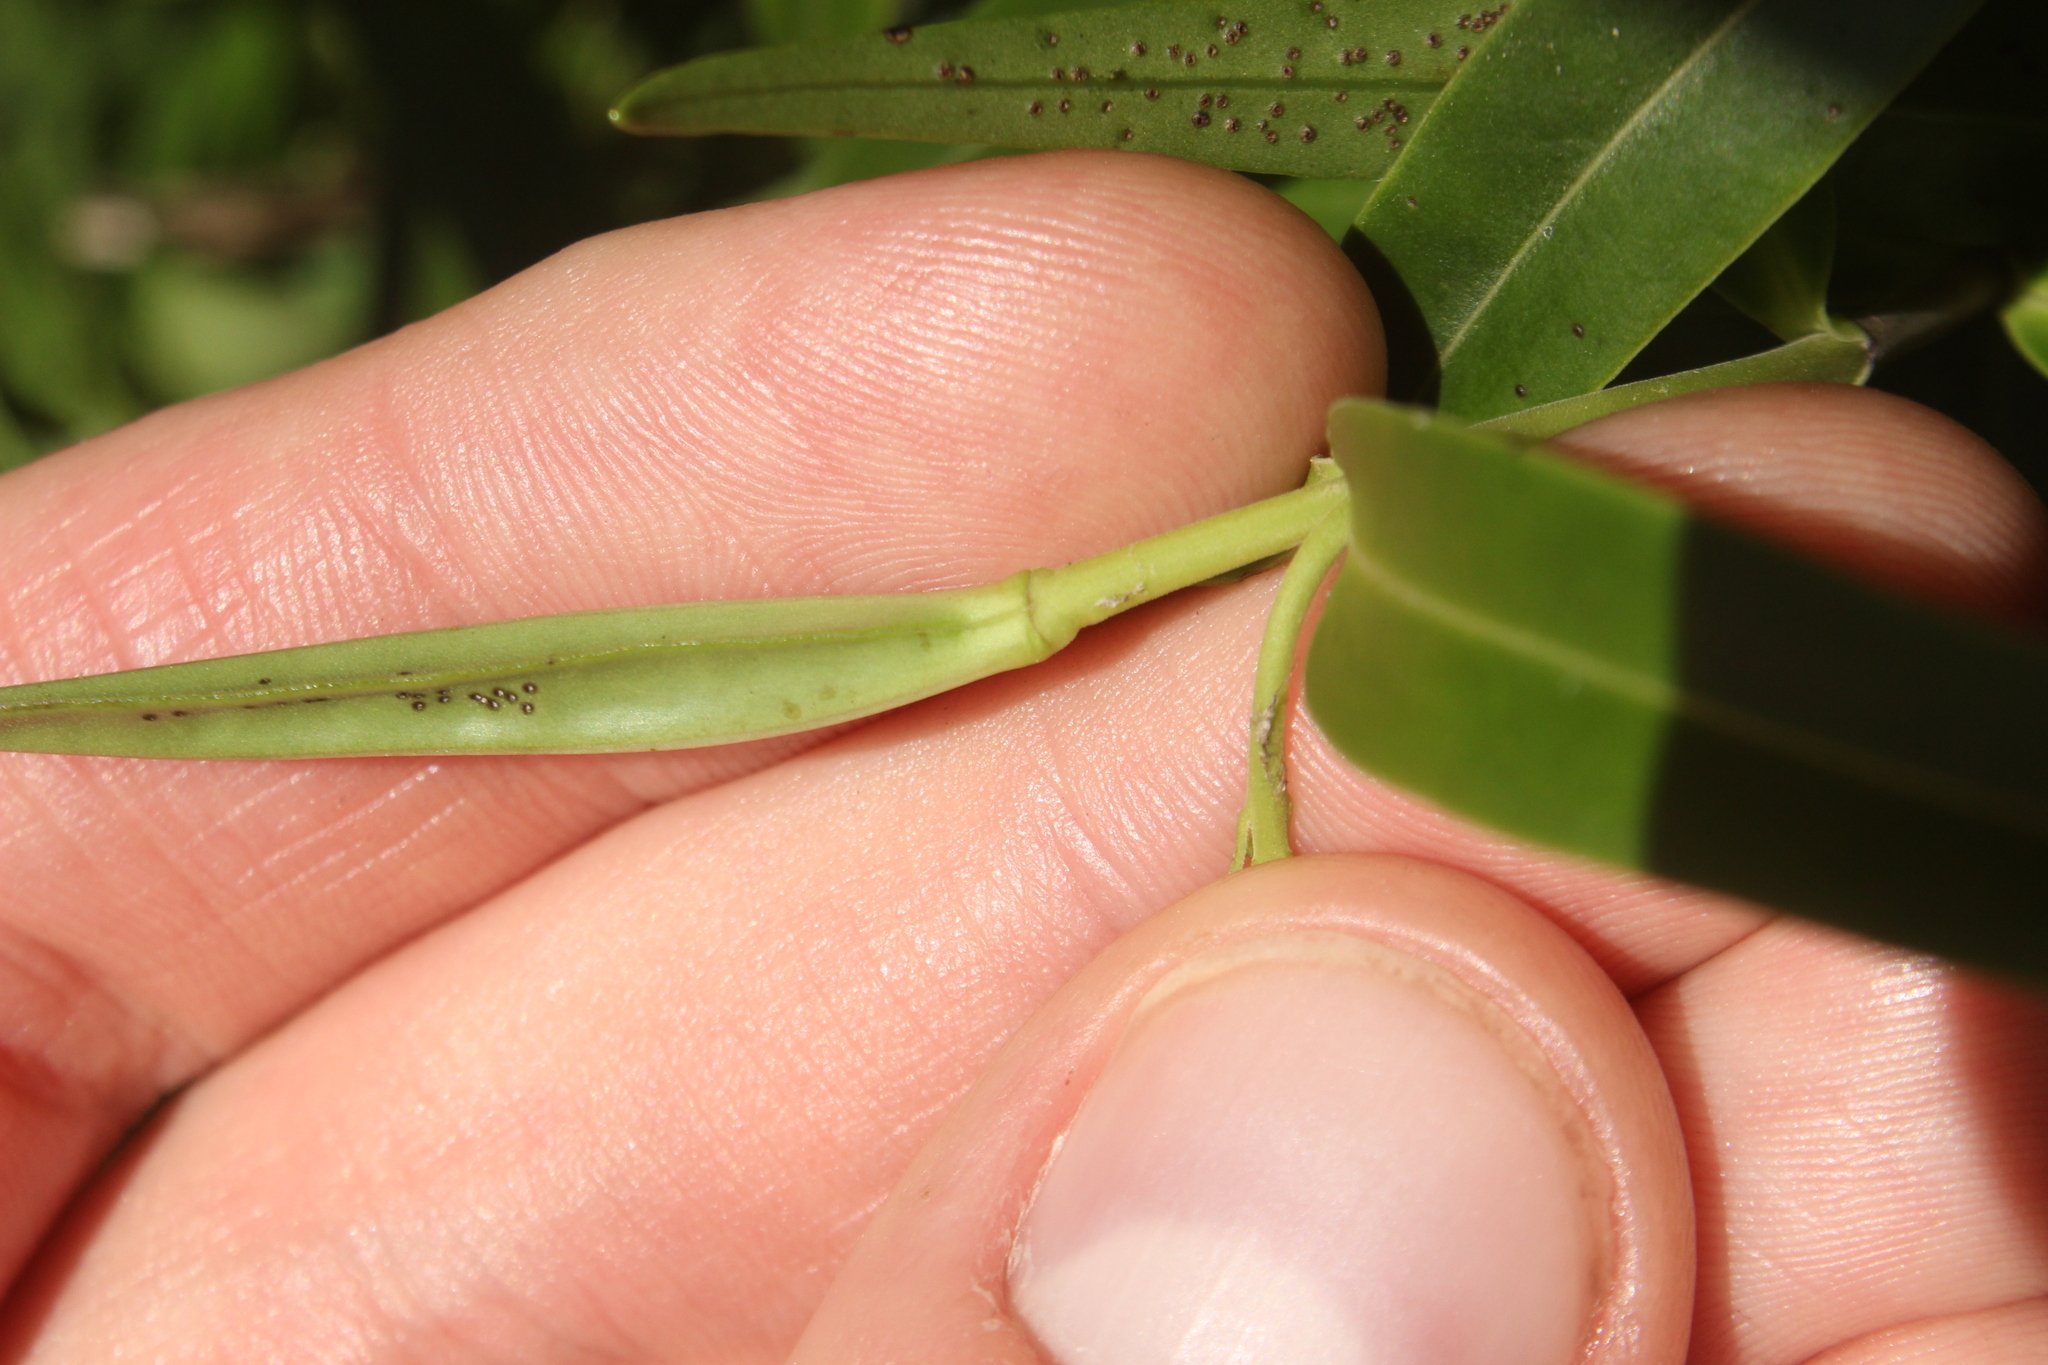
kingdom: Plantae
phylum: Tracheophyta
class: Magnoliopsida
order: Lamiales
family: Plantaginaceae
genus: Veronica
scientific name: Veronica angustissima
